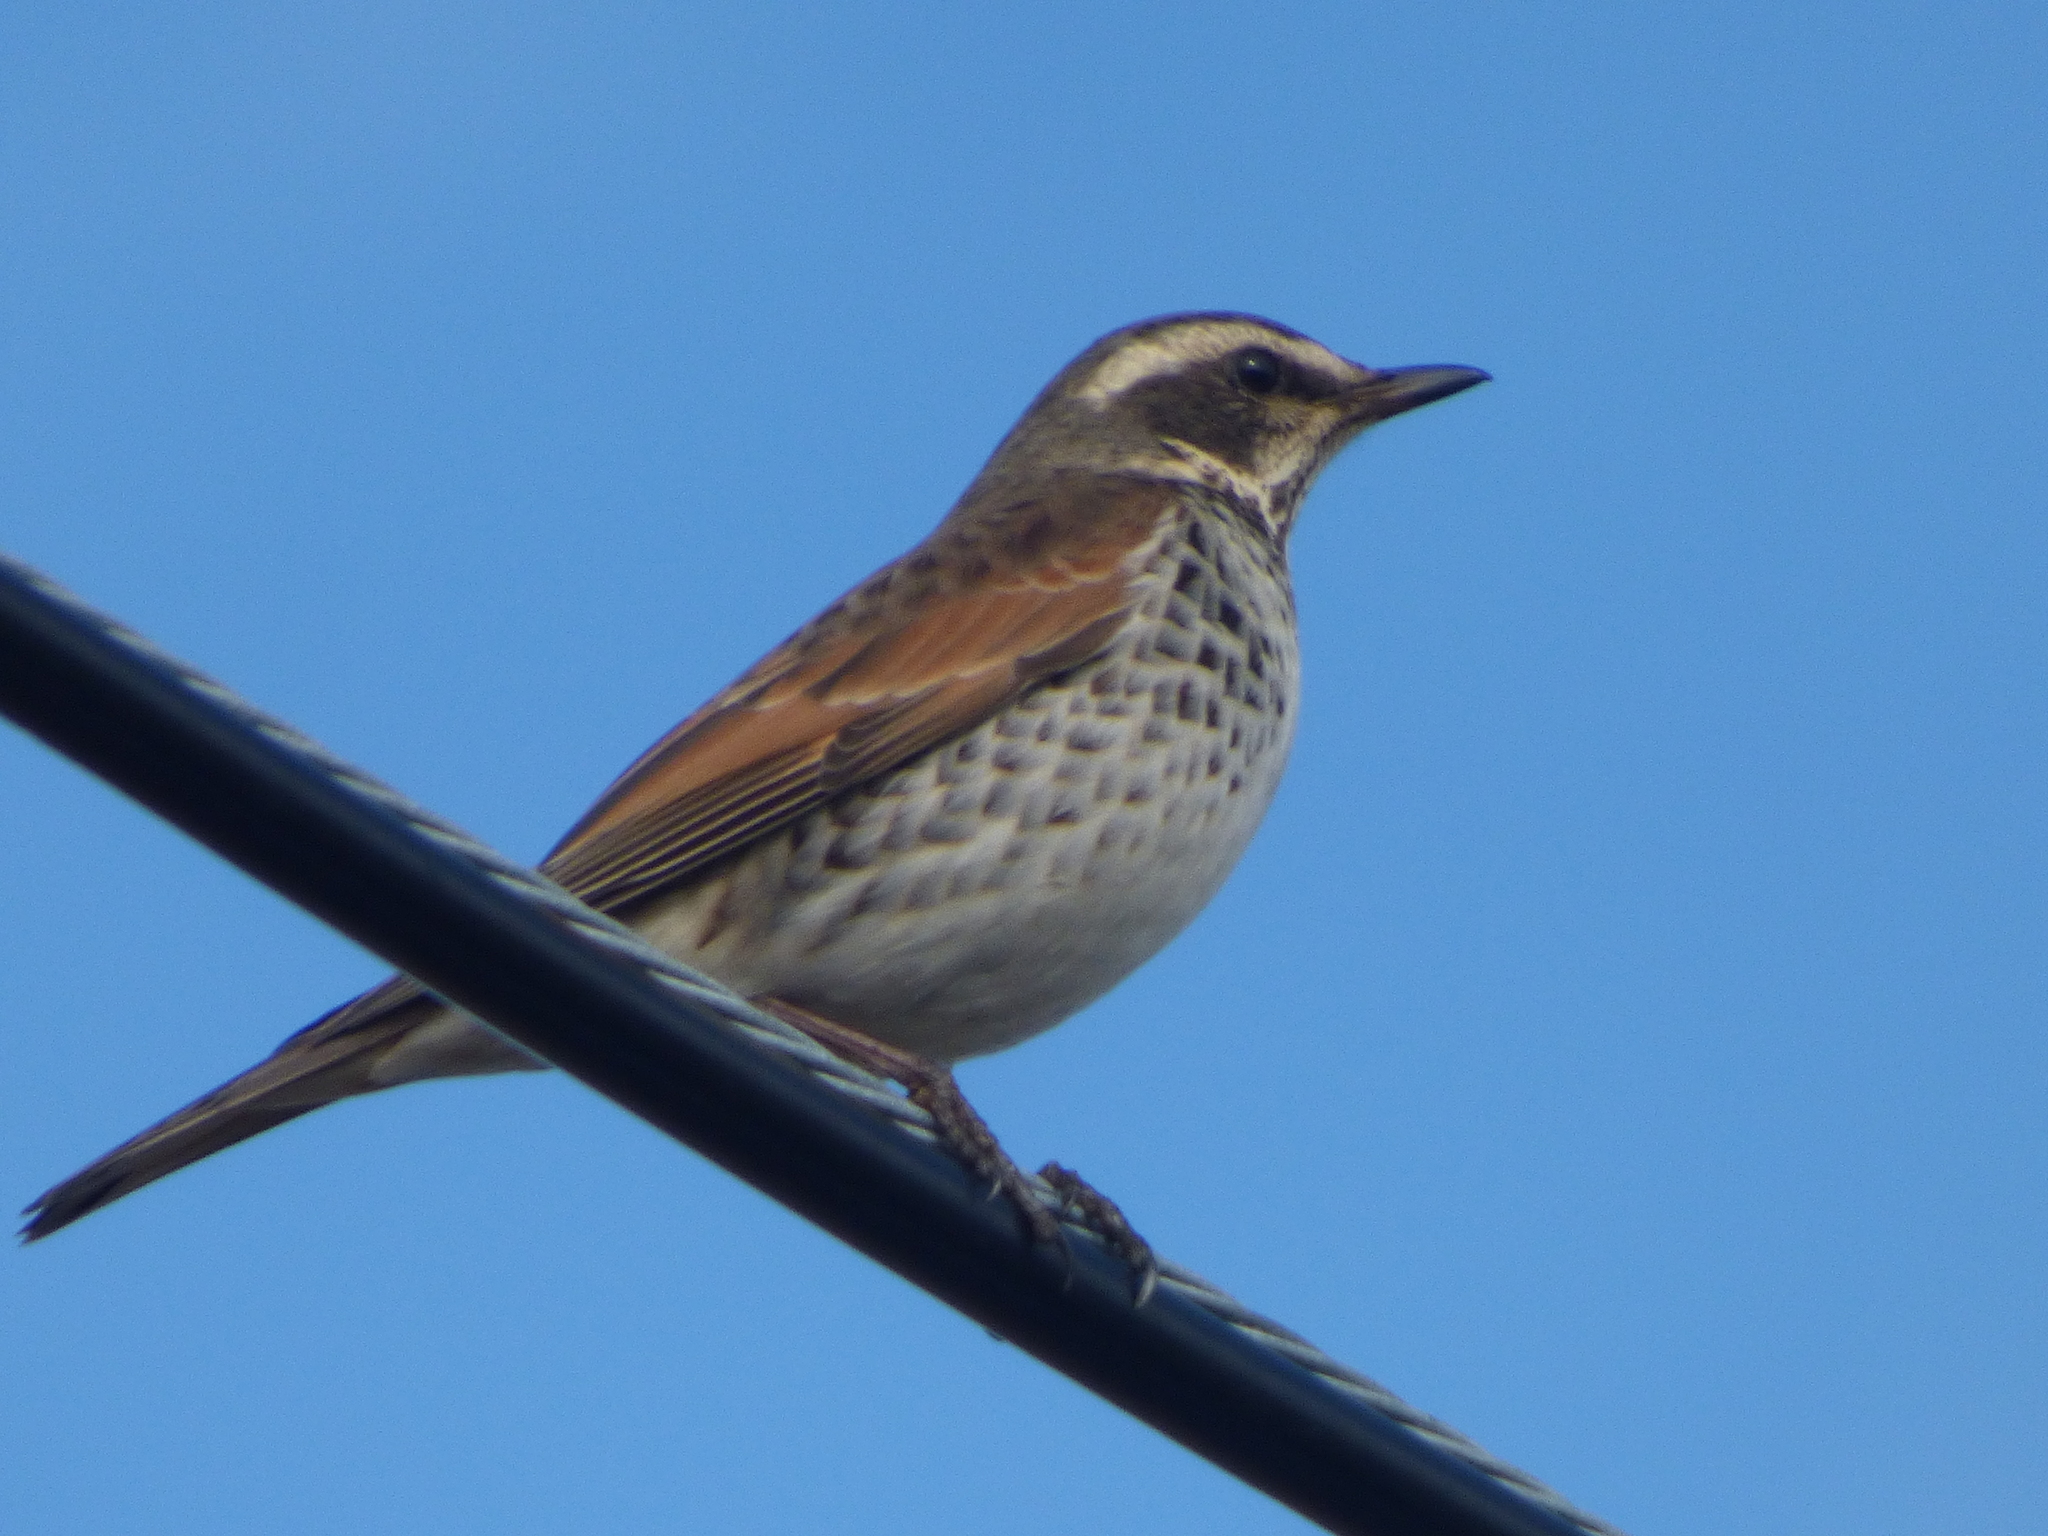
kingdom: Animalia
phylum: Chordata
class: Aves
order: Passeriformes
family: Turdidae
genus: Turdus
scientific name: Turdus eunomus
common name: Dusky thrush
